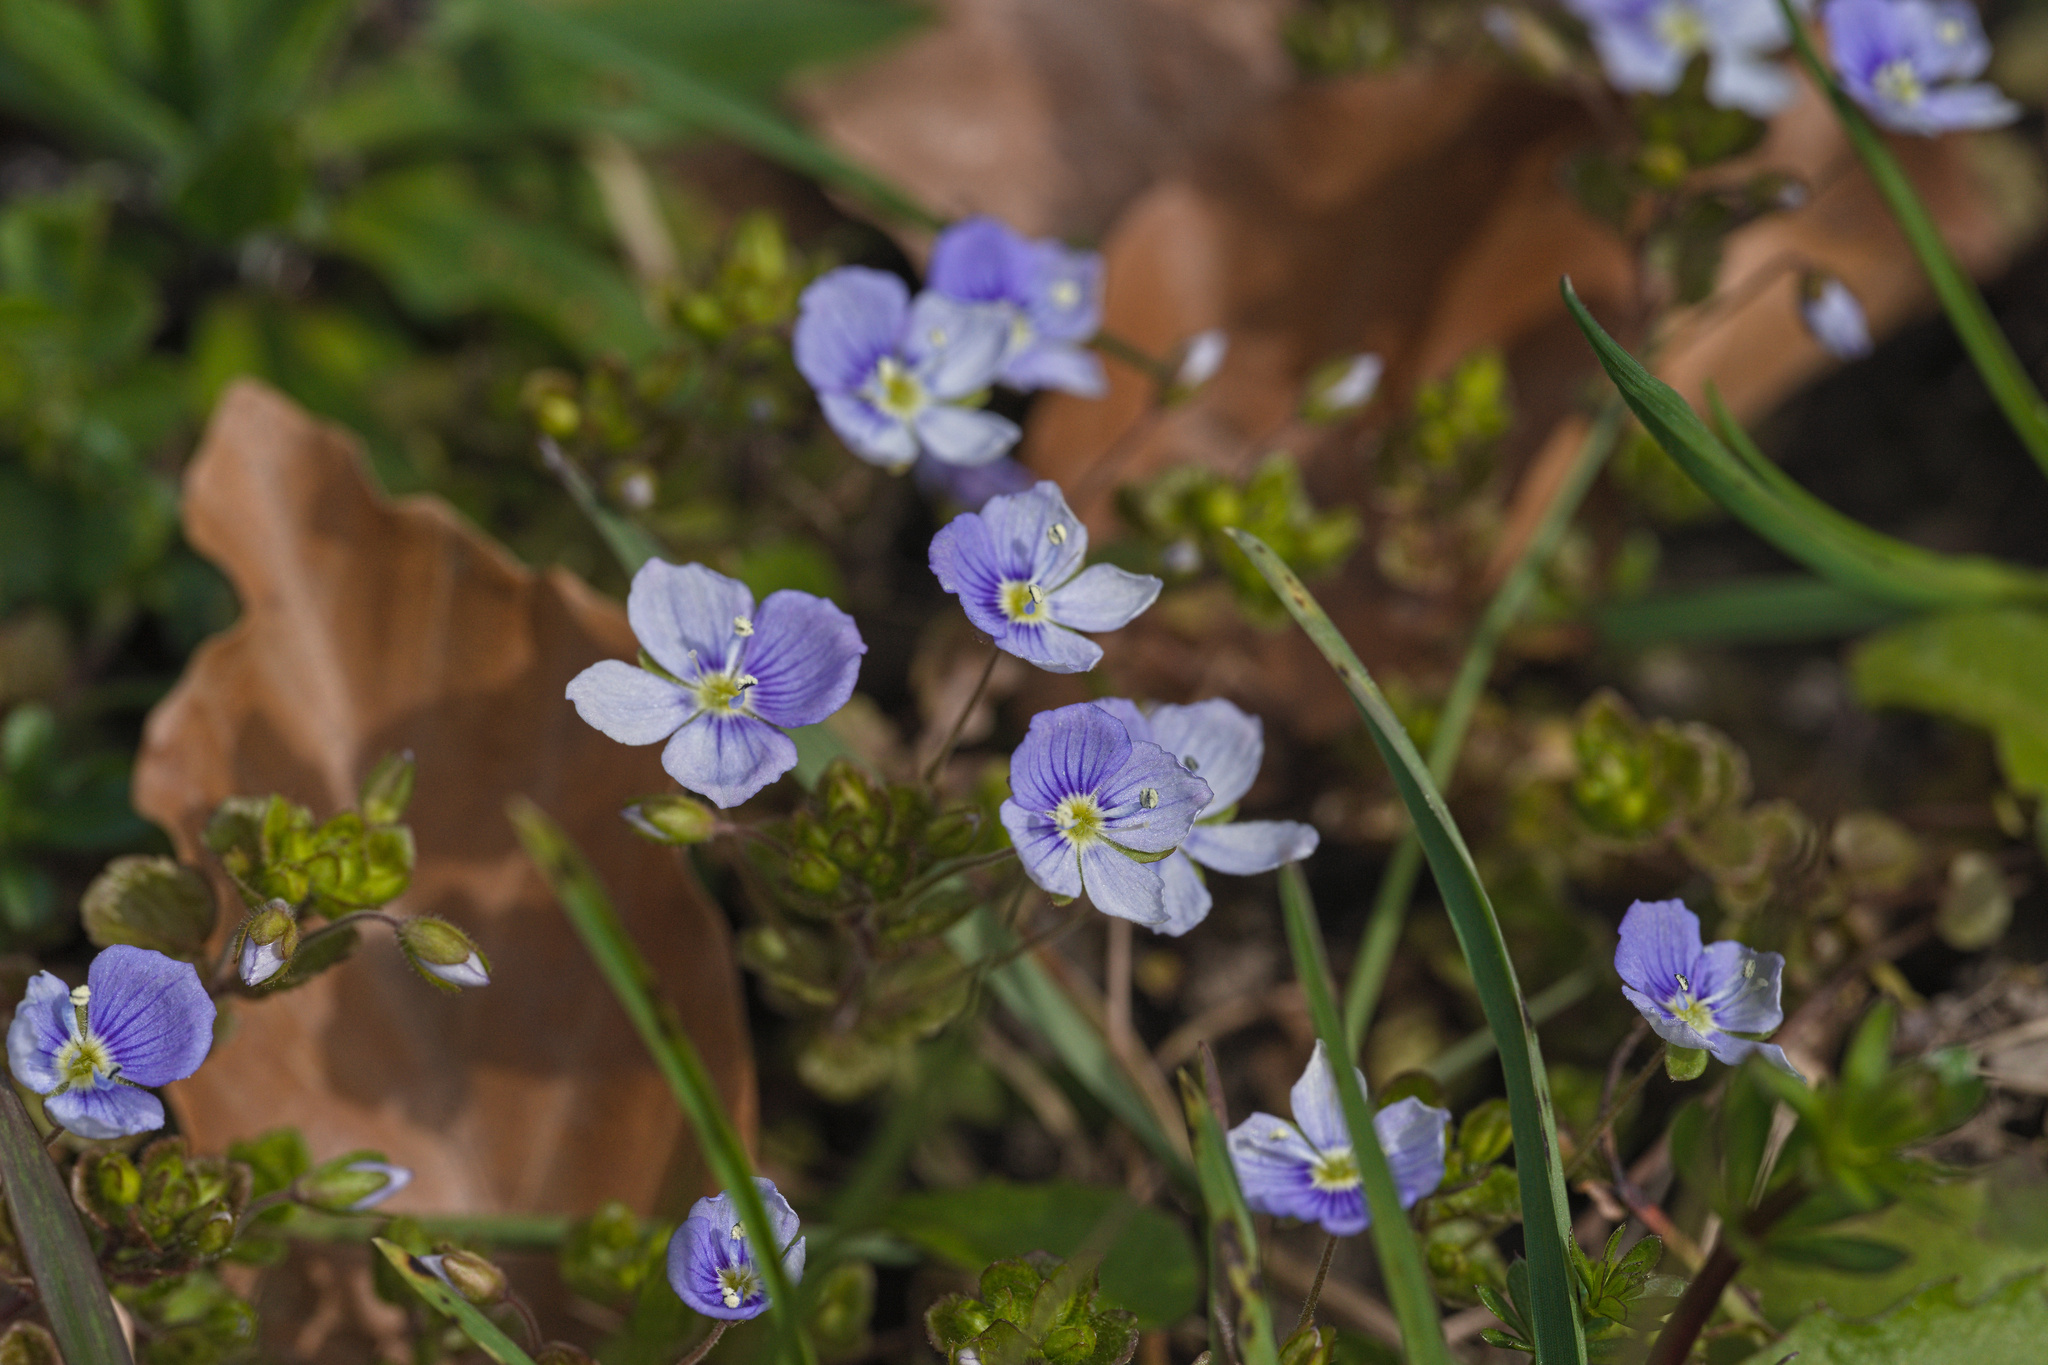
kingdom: Plantae
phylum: Tracheophyta
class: Magnoliopsida
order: Lamiales
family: Plantaginaceae
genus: Veronica
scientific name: Veronica filiformis
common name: Slender speedwell
